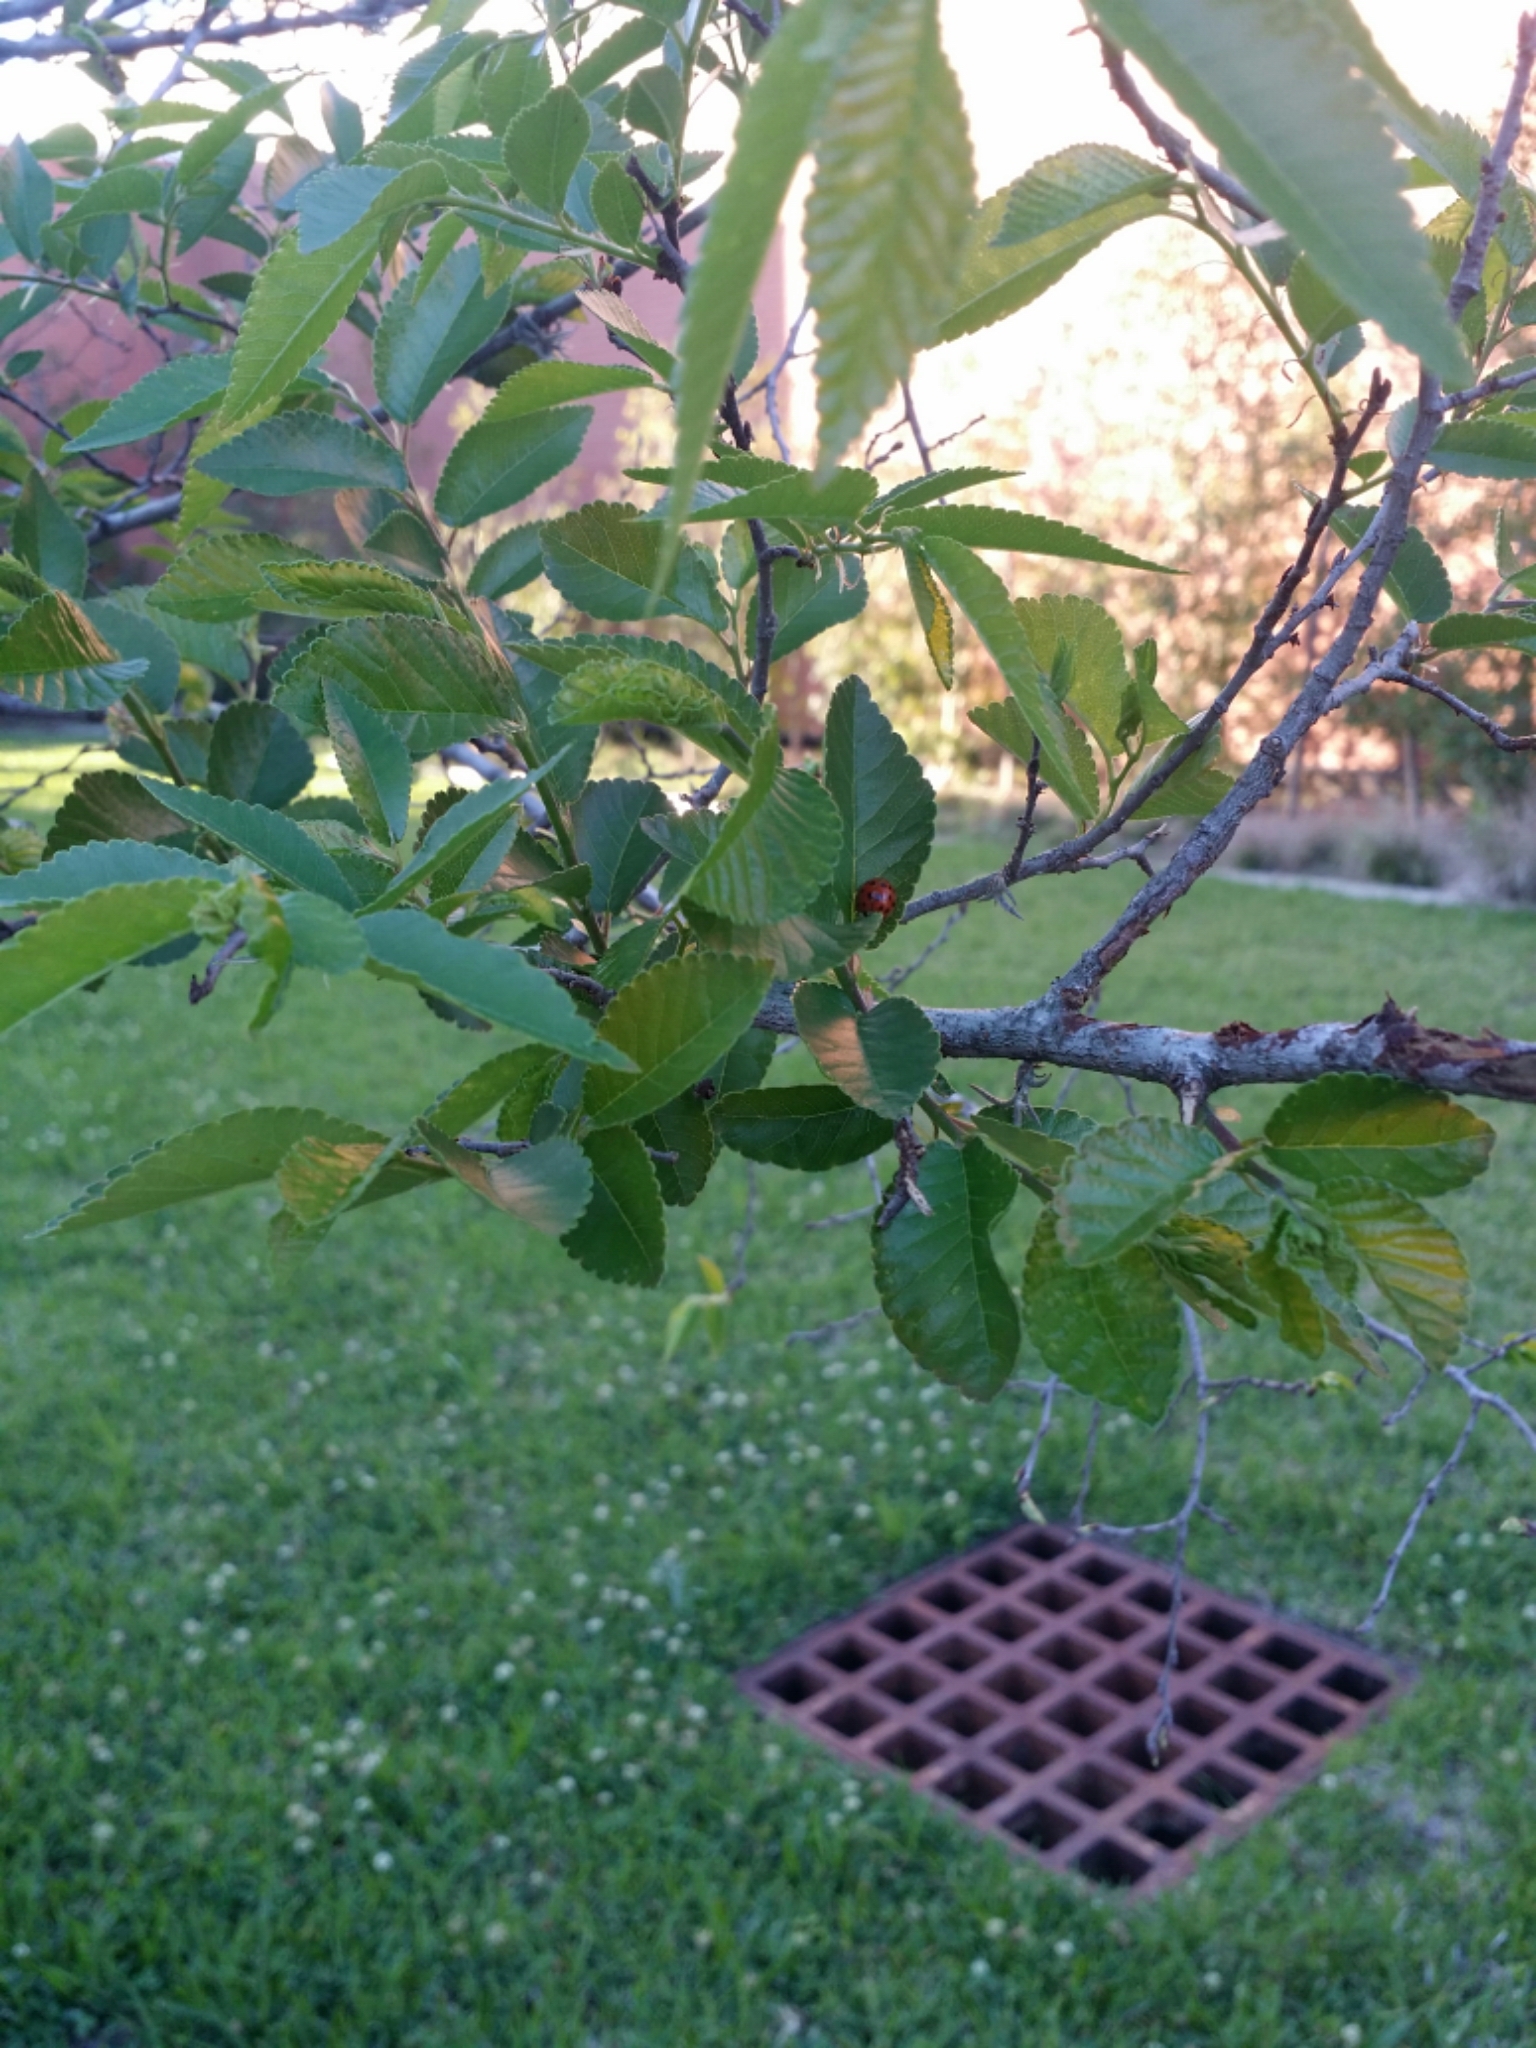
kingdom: Animalia
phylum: Arthropoda
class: Insecta
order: Coleoptera
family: Coccinellidae
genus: Harmonia
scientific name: Harmonia axyridis
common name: Harlequin ladybird
